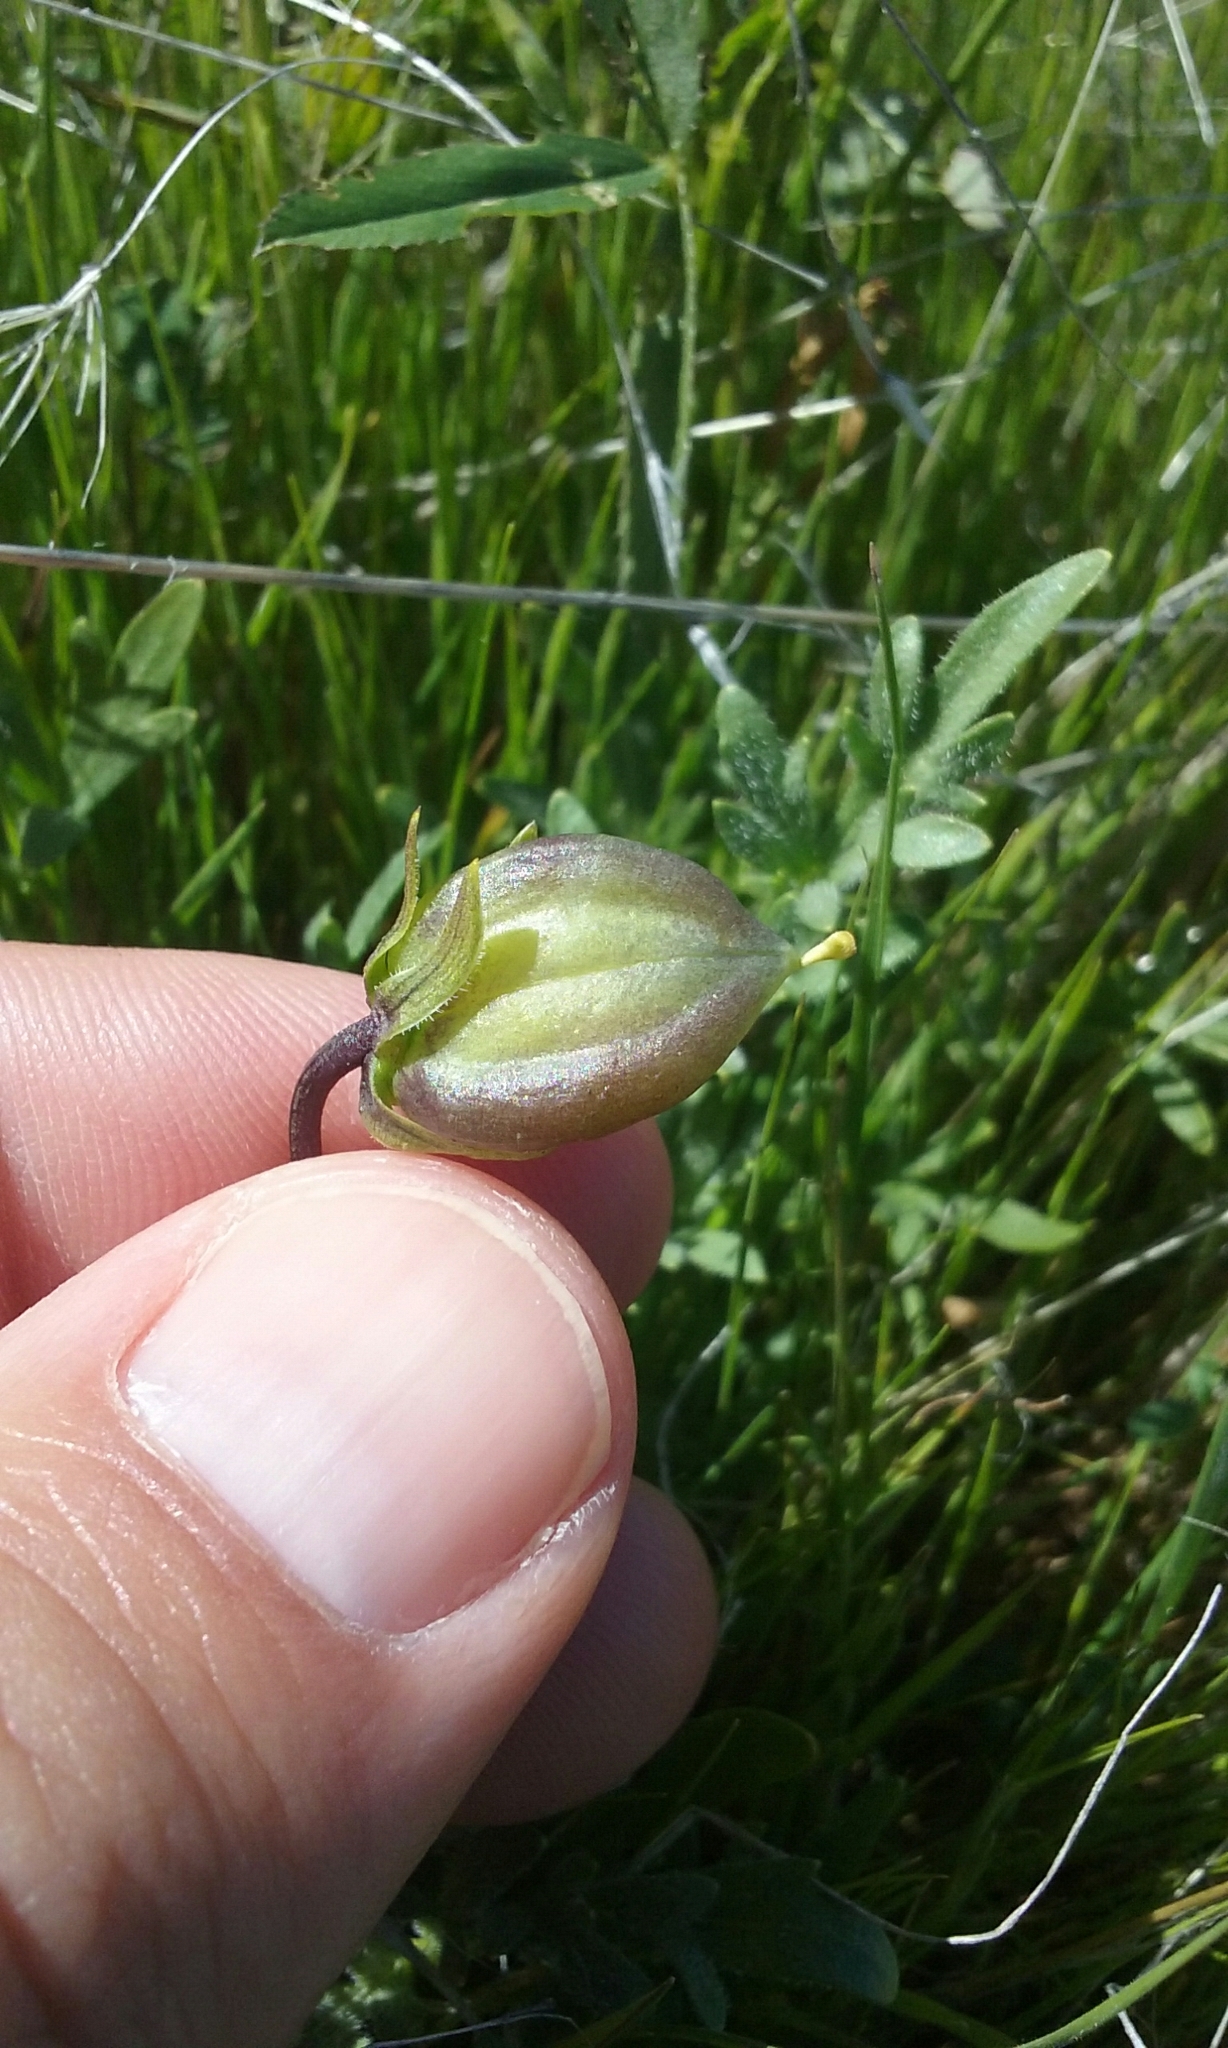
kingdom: Plantae
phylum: Tracheophyta
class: Magnoliopsida
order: Malpighiales
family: Violaceae
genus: Viola
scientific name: Viola douglasii
